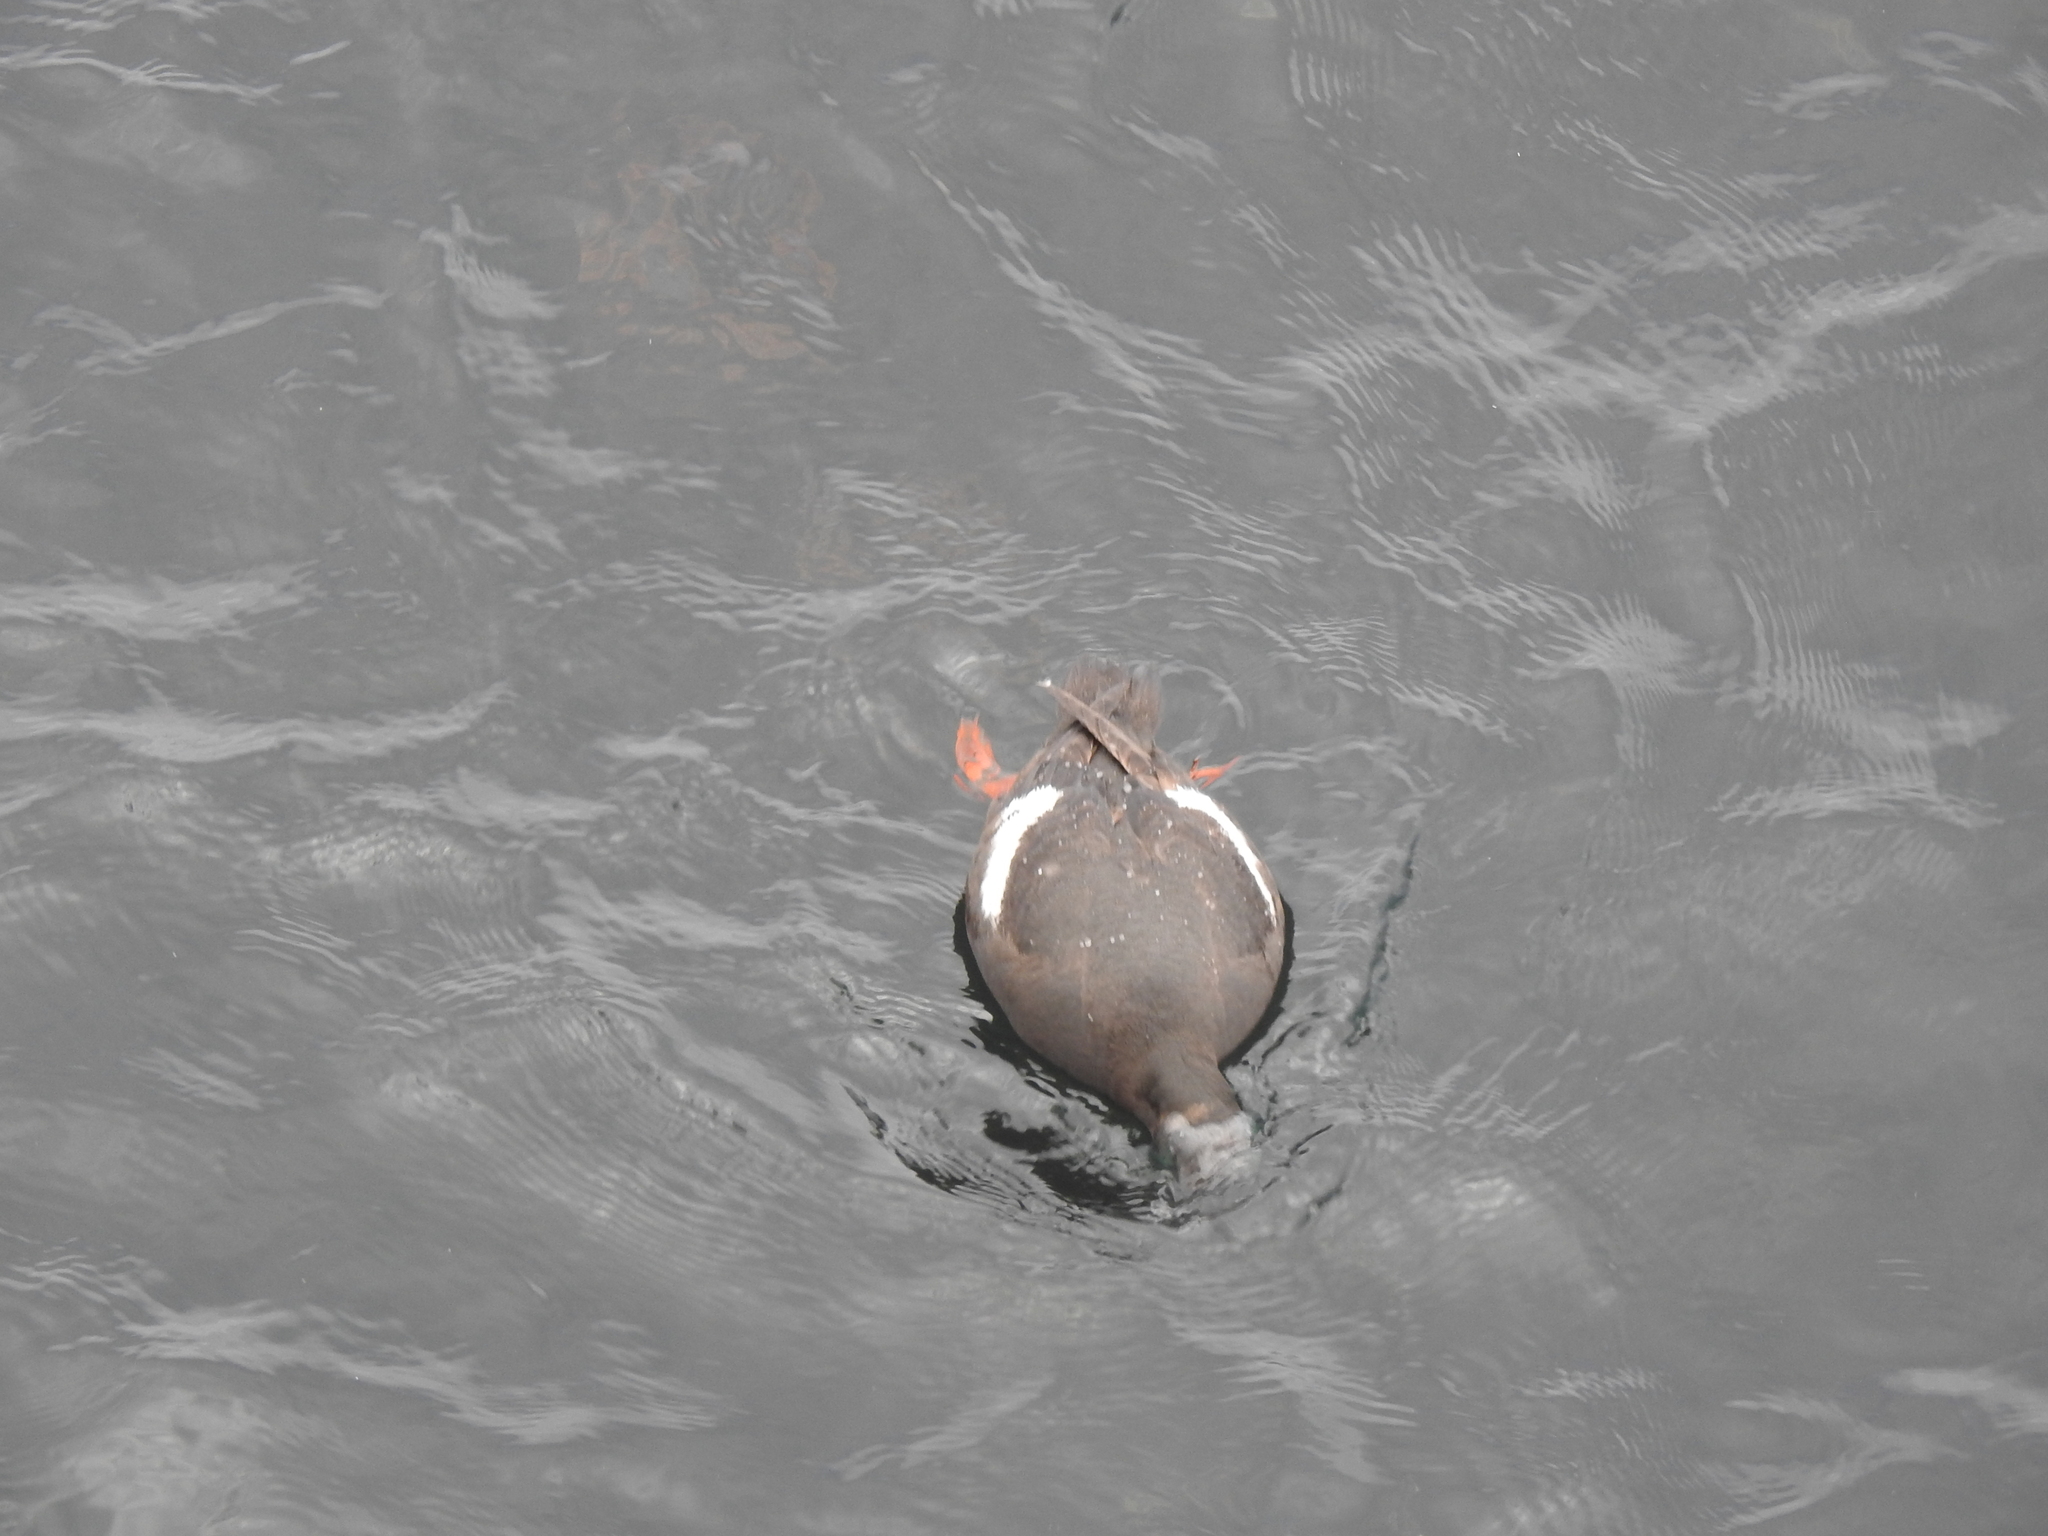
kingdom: Animalia
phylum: Chordata
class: Aves
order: Charadriiformes
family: Alcidae
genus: Cepphus
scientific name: Cepphus columba
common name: Pigeon guillemot
